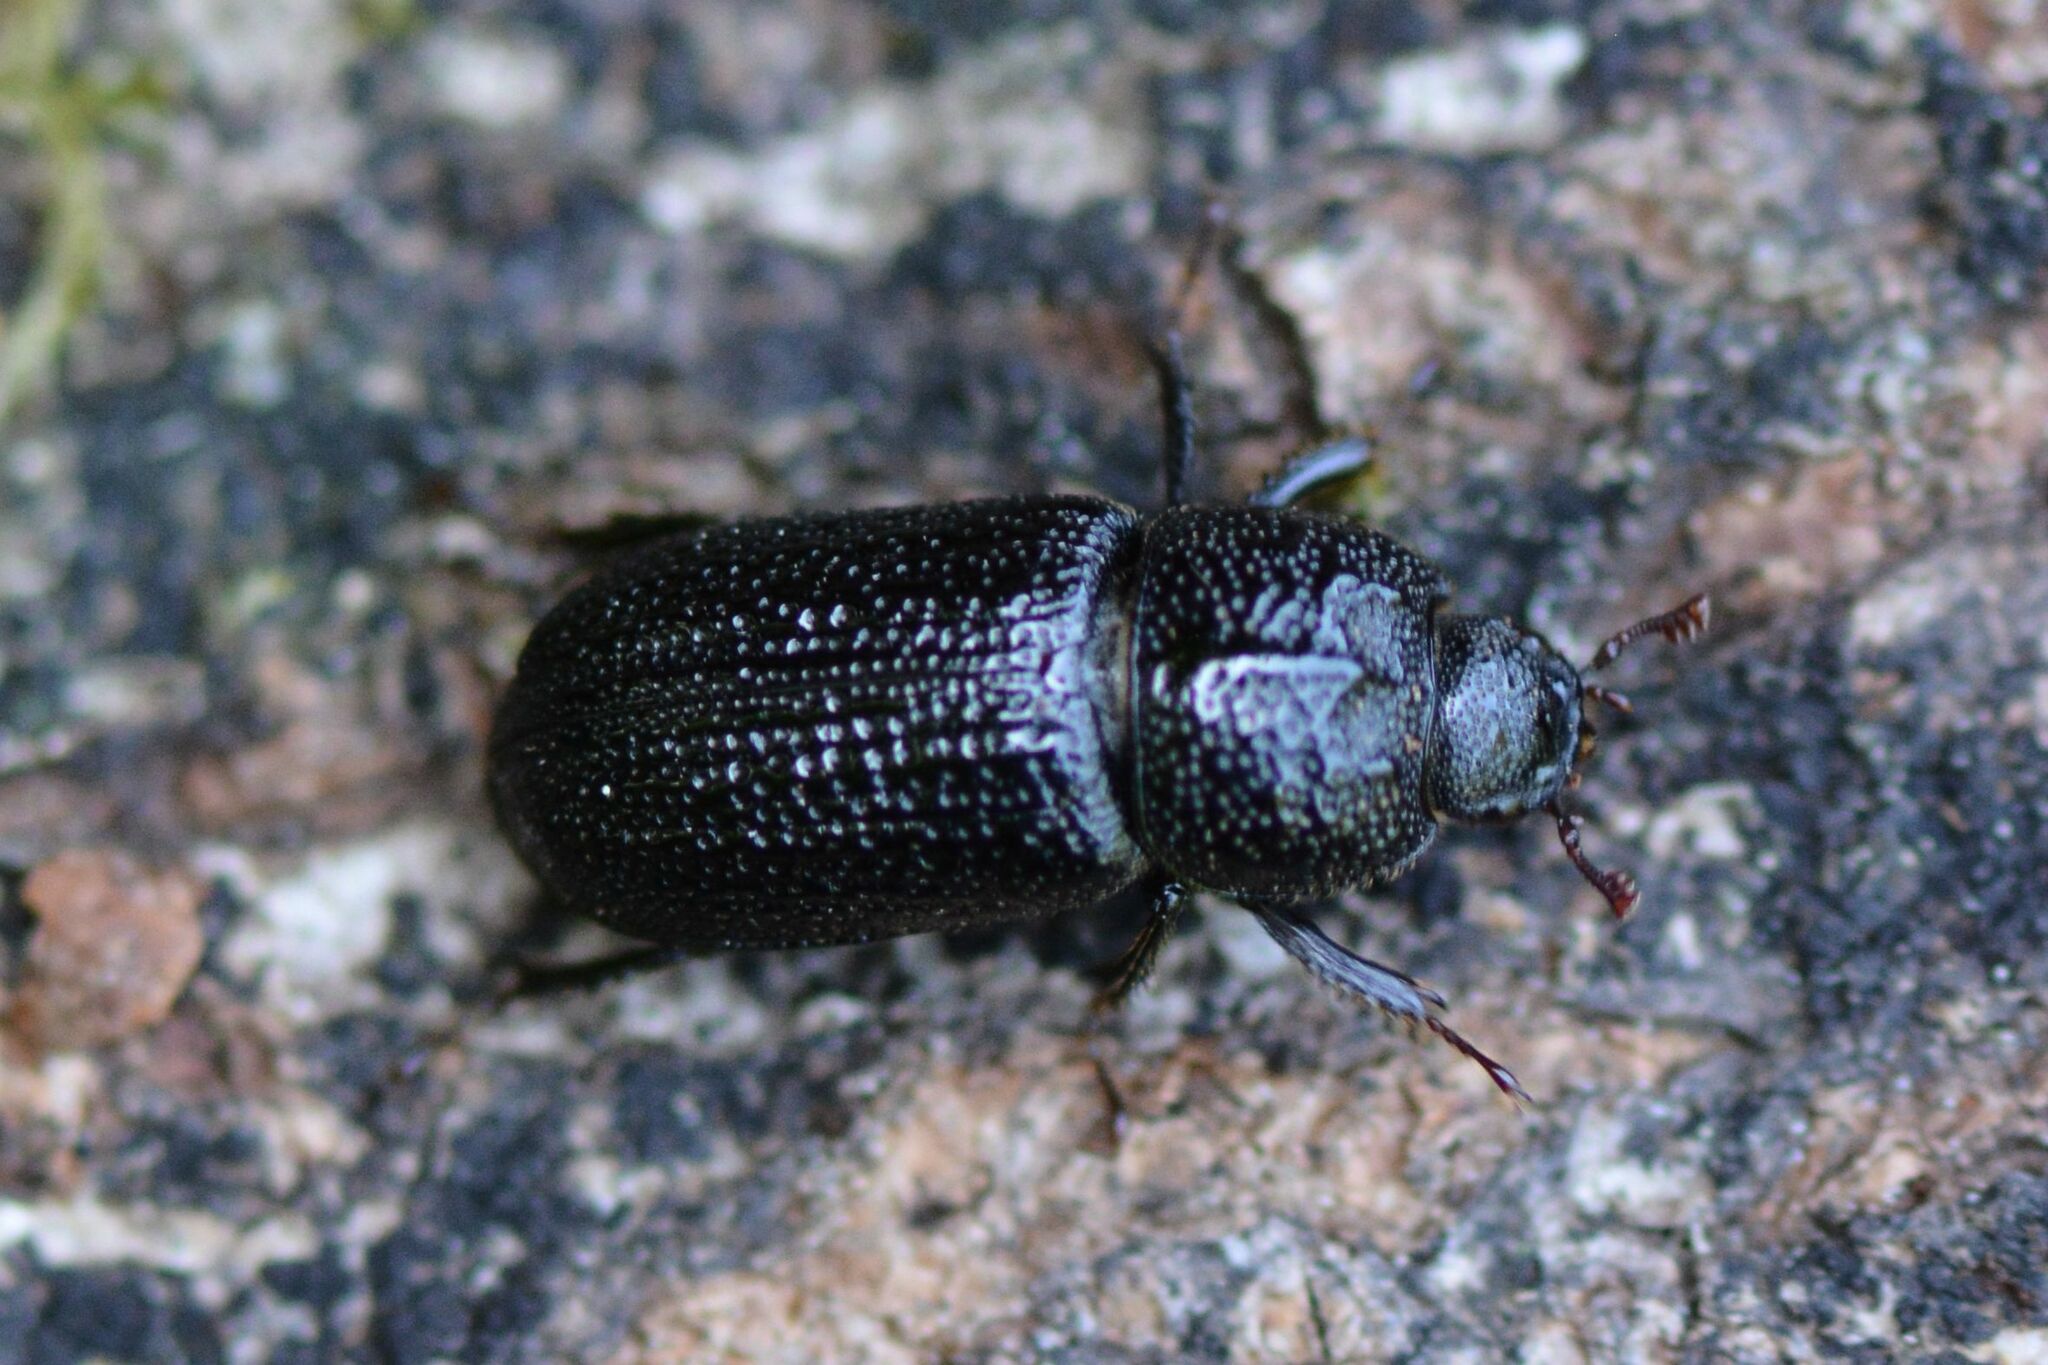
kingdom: Animalia
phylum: Arthropoda
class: Insecta
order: Coleoptera
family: Lucanidae
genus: Sinodendron
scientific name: Sinodendron cylindricum
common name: Rhinoceros beetle
